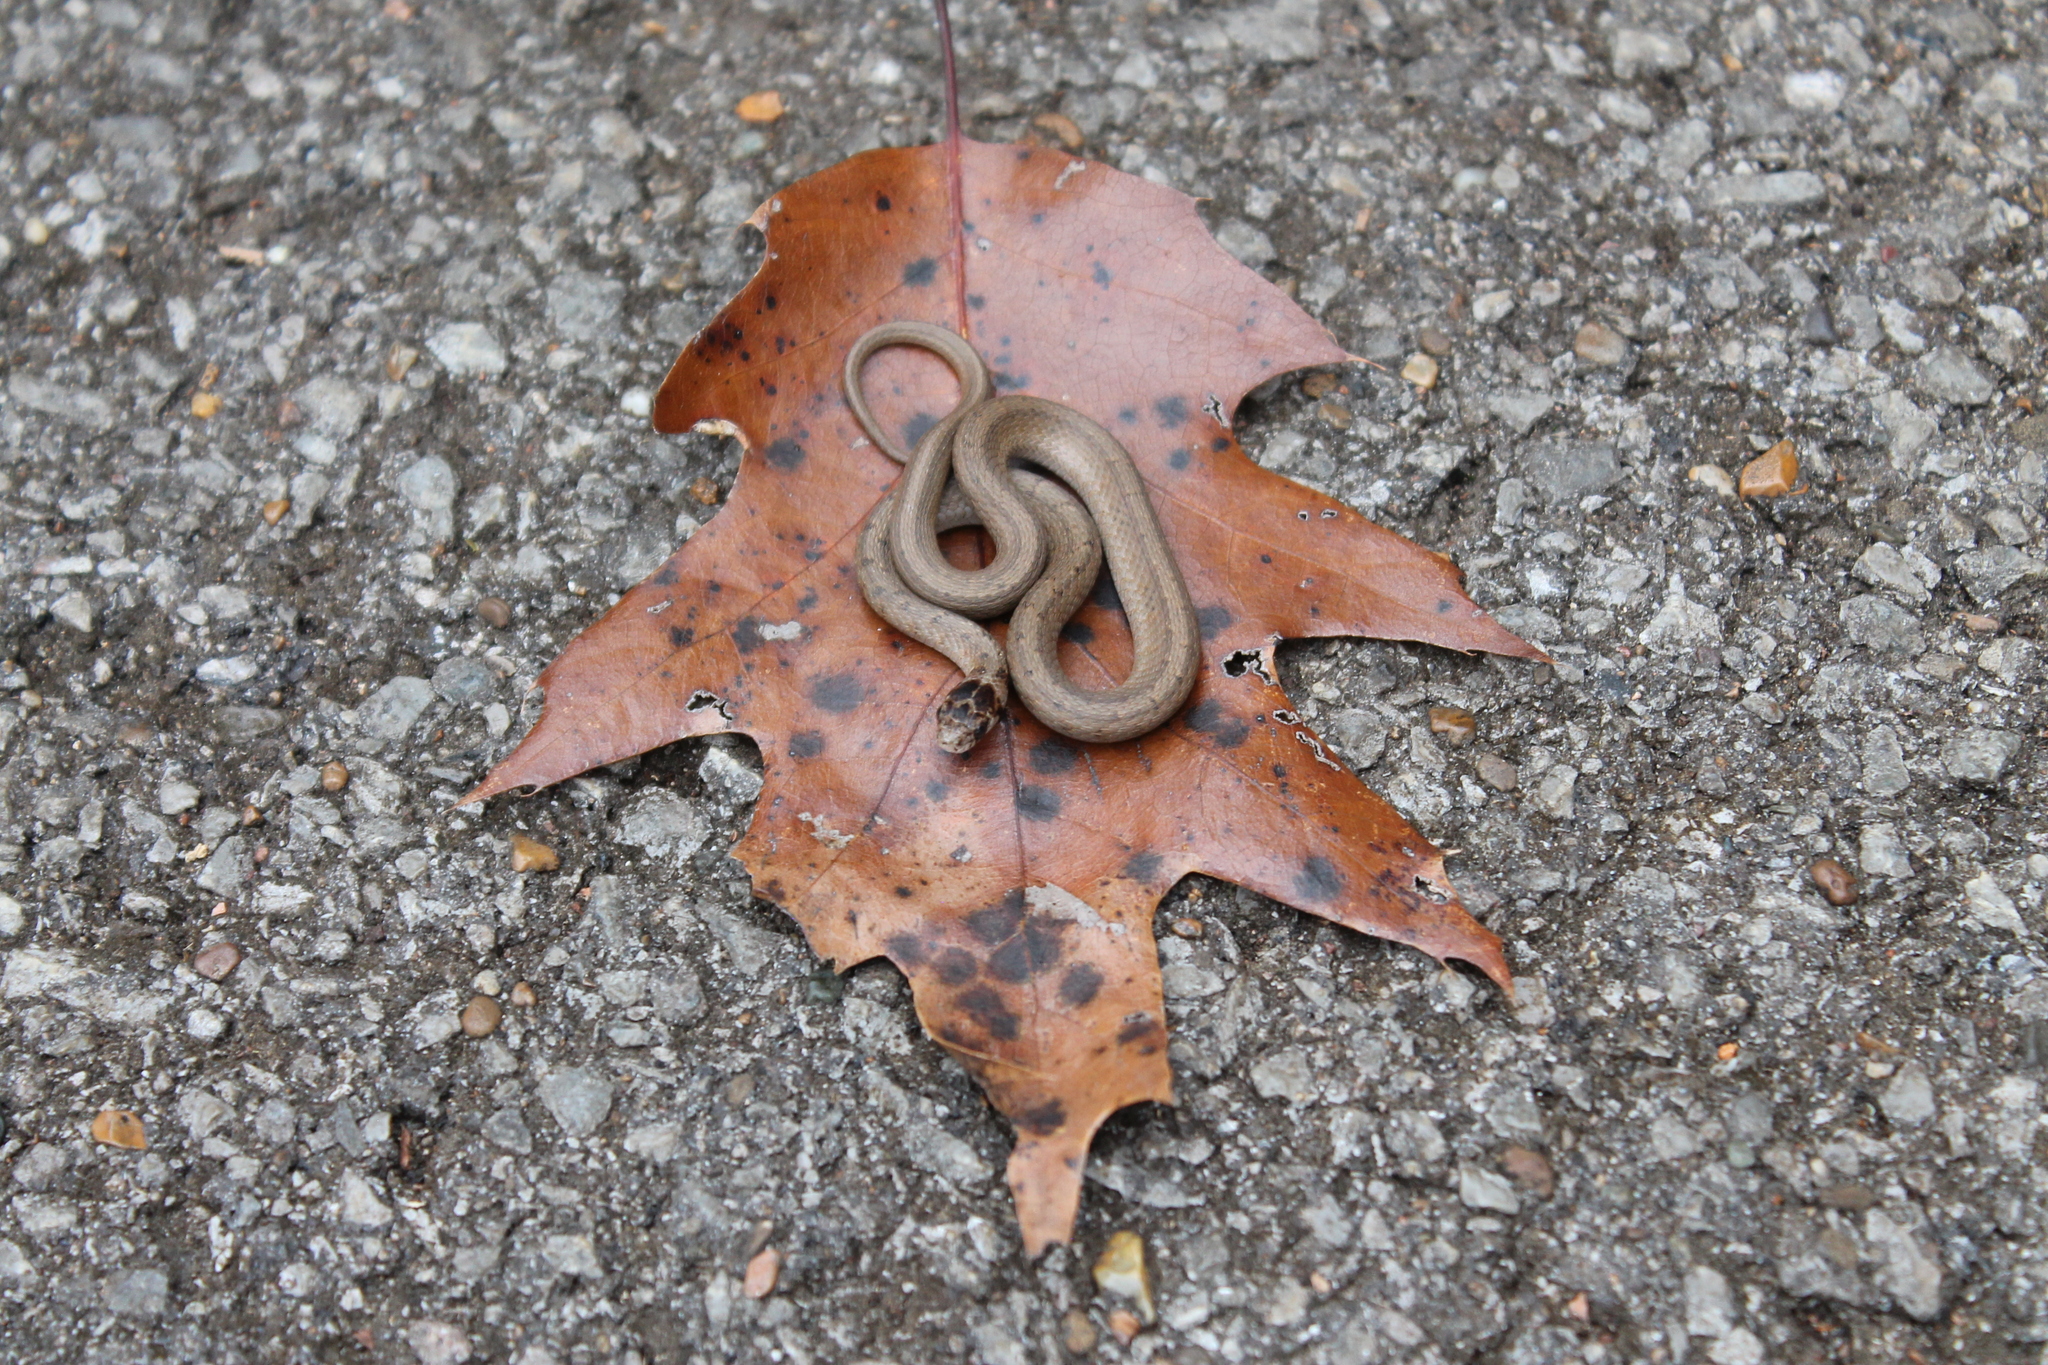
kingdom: Animalia
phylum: Chordata
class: Squamata
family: Colubridae
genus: Storeria
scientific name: Storeria dekayi
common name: (dekay’s) brown snake
